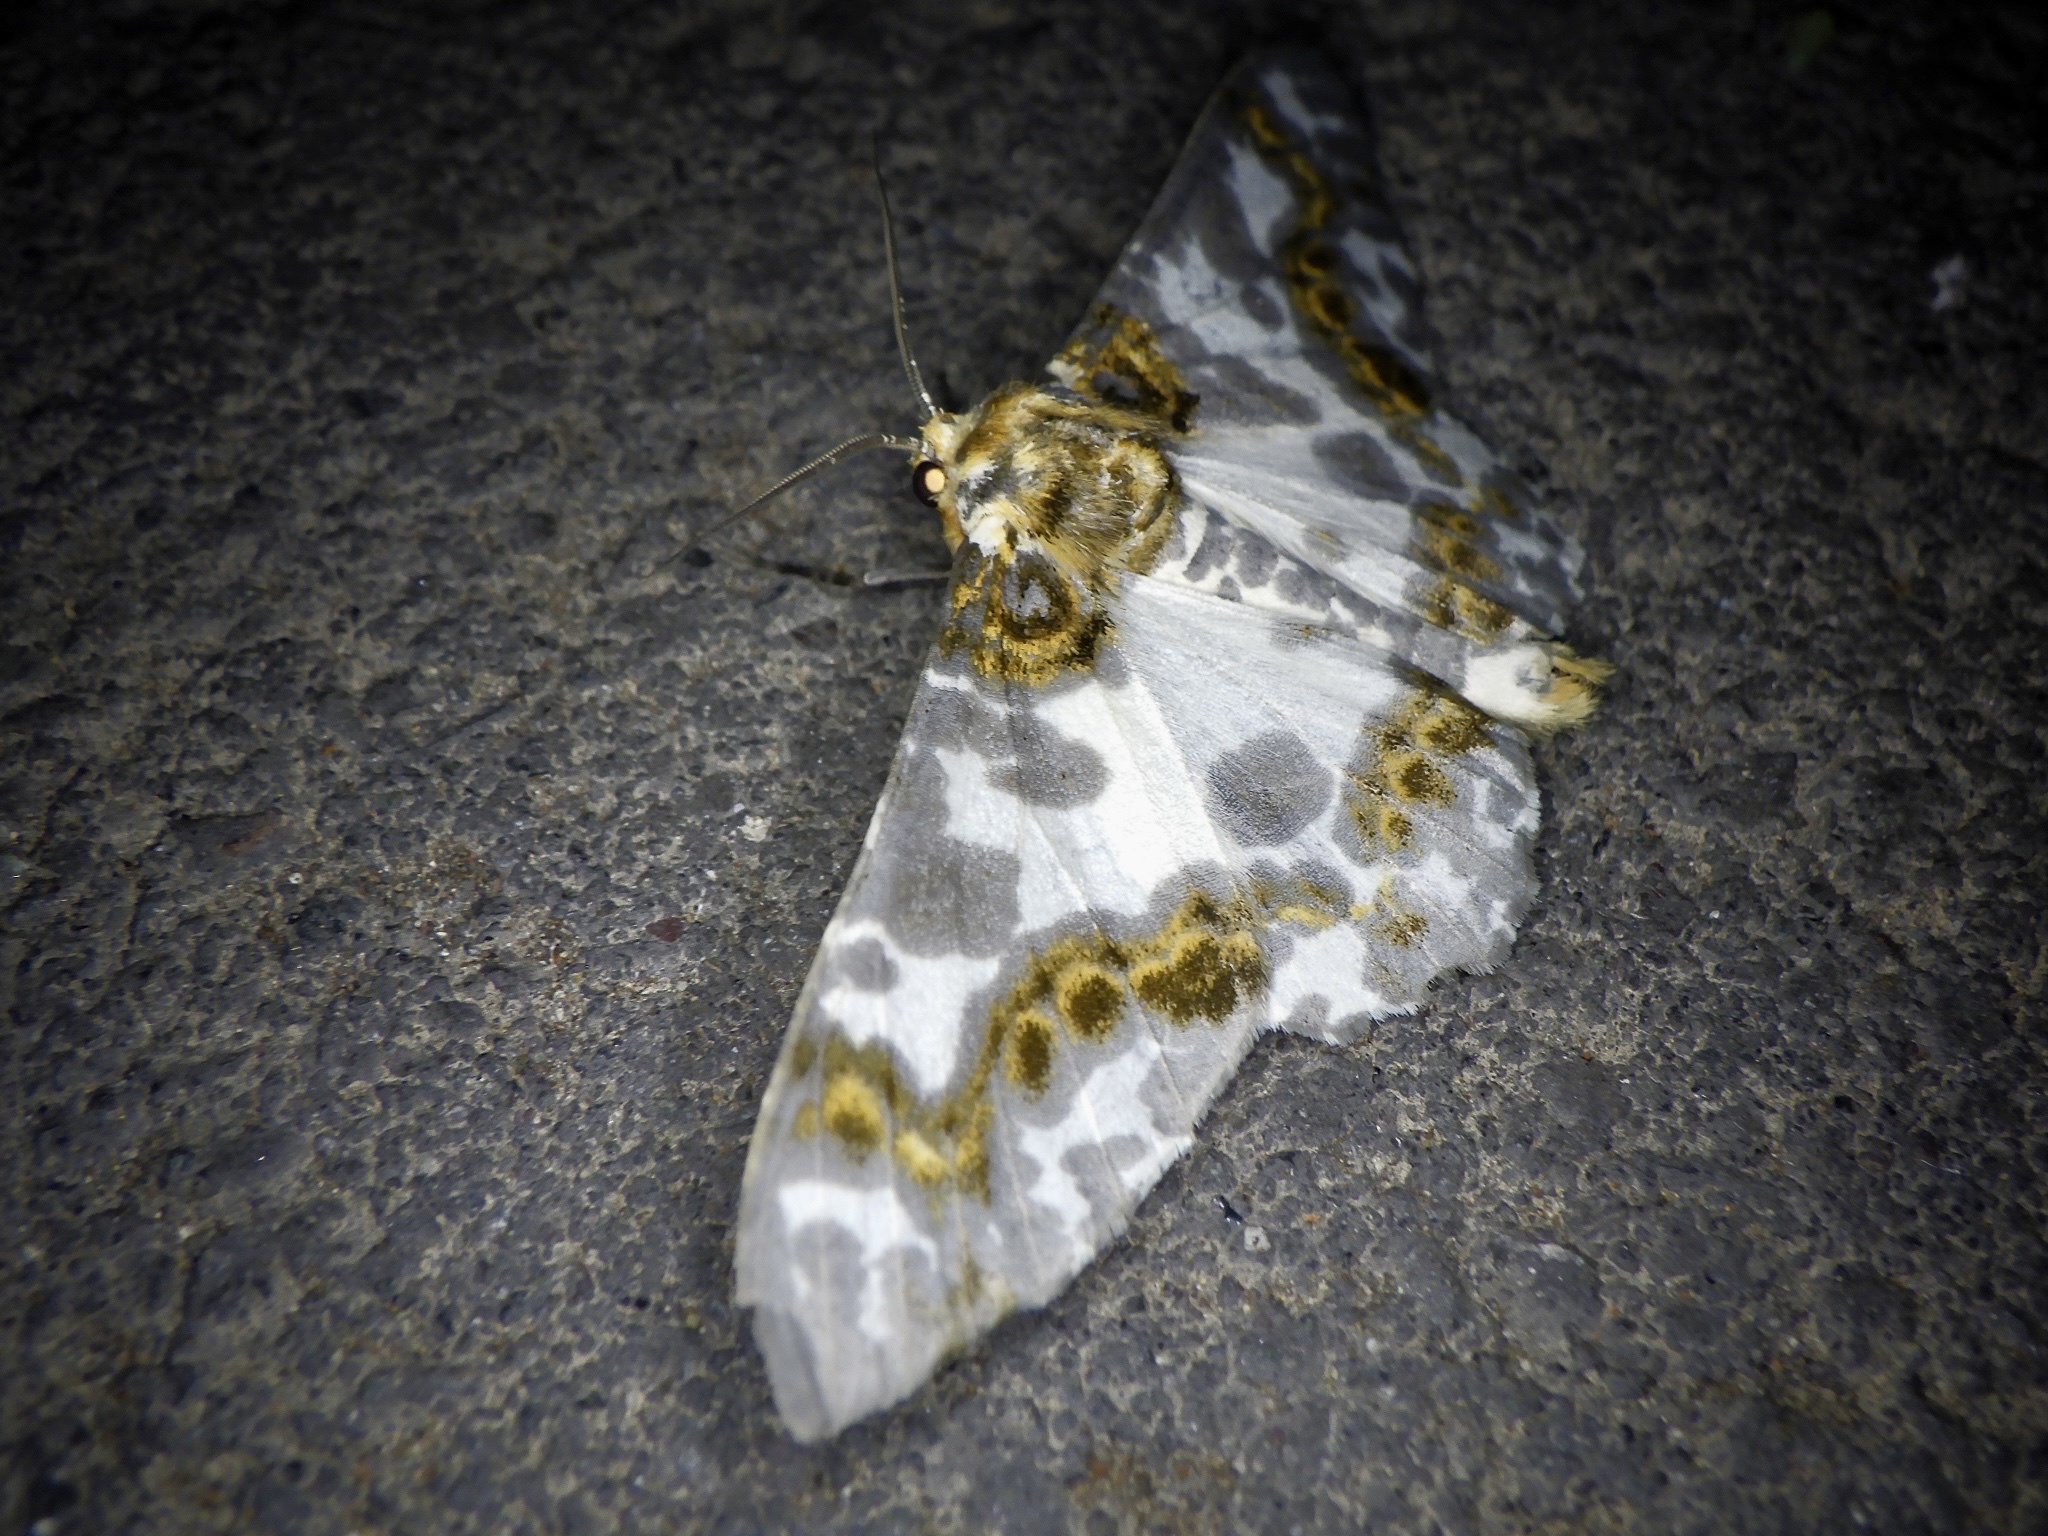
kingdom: Animalia
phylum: Arthropoda
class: Insecta
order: Lepidoptera
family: Geometridae
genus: Biston
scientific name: Biston panterinaria
